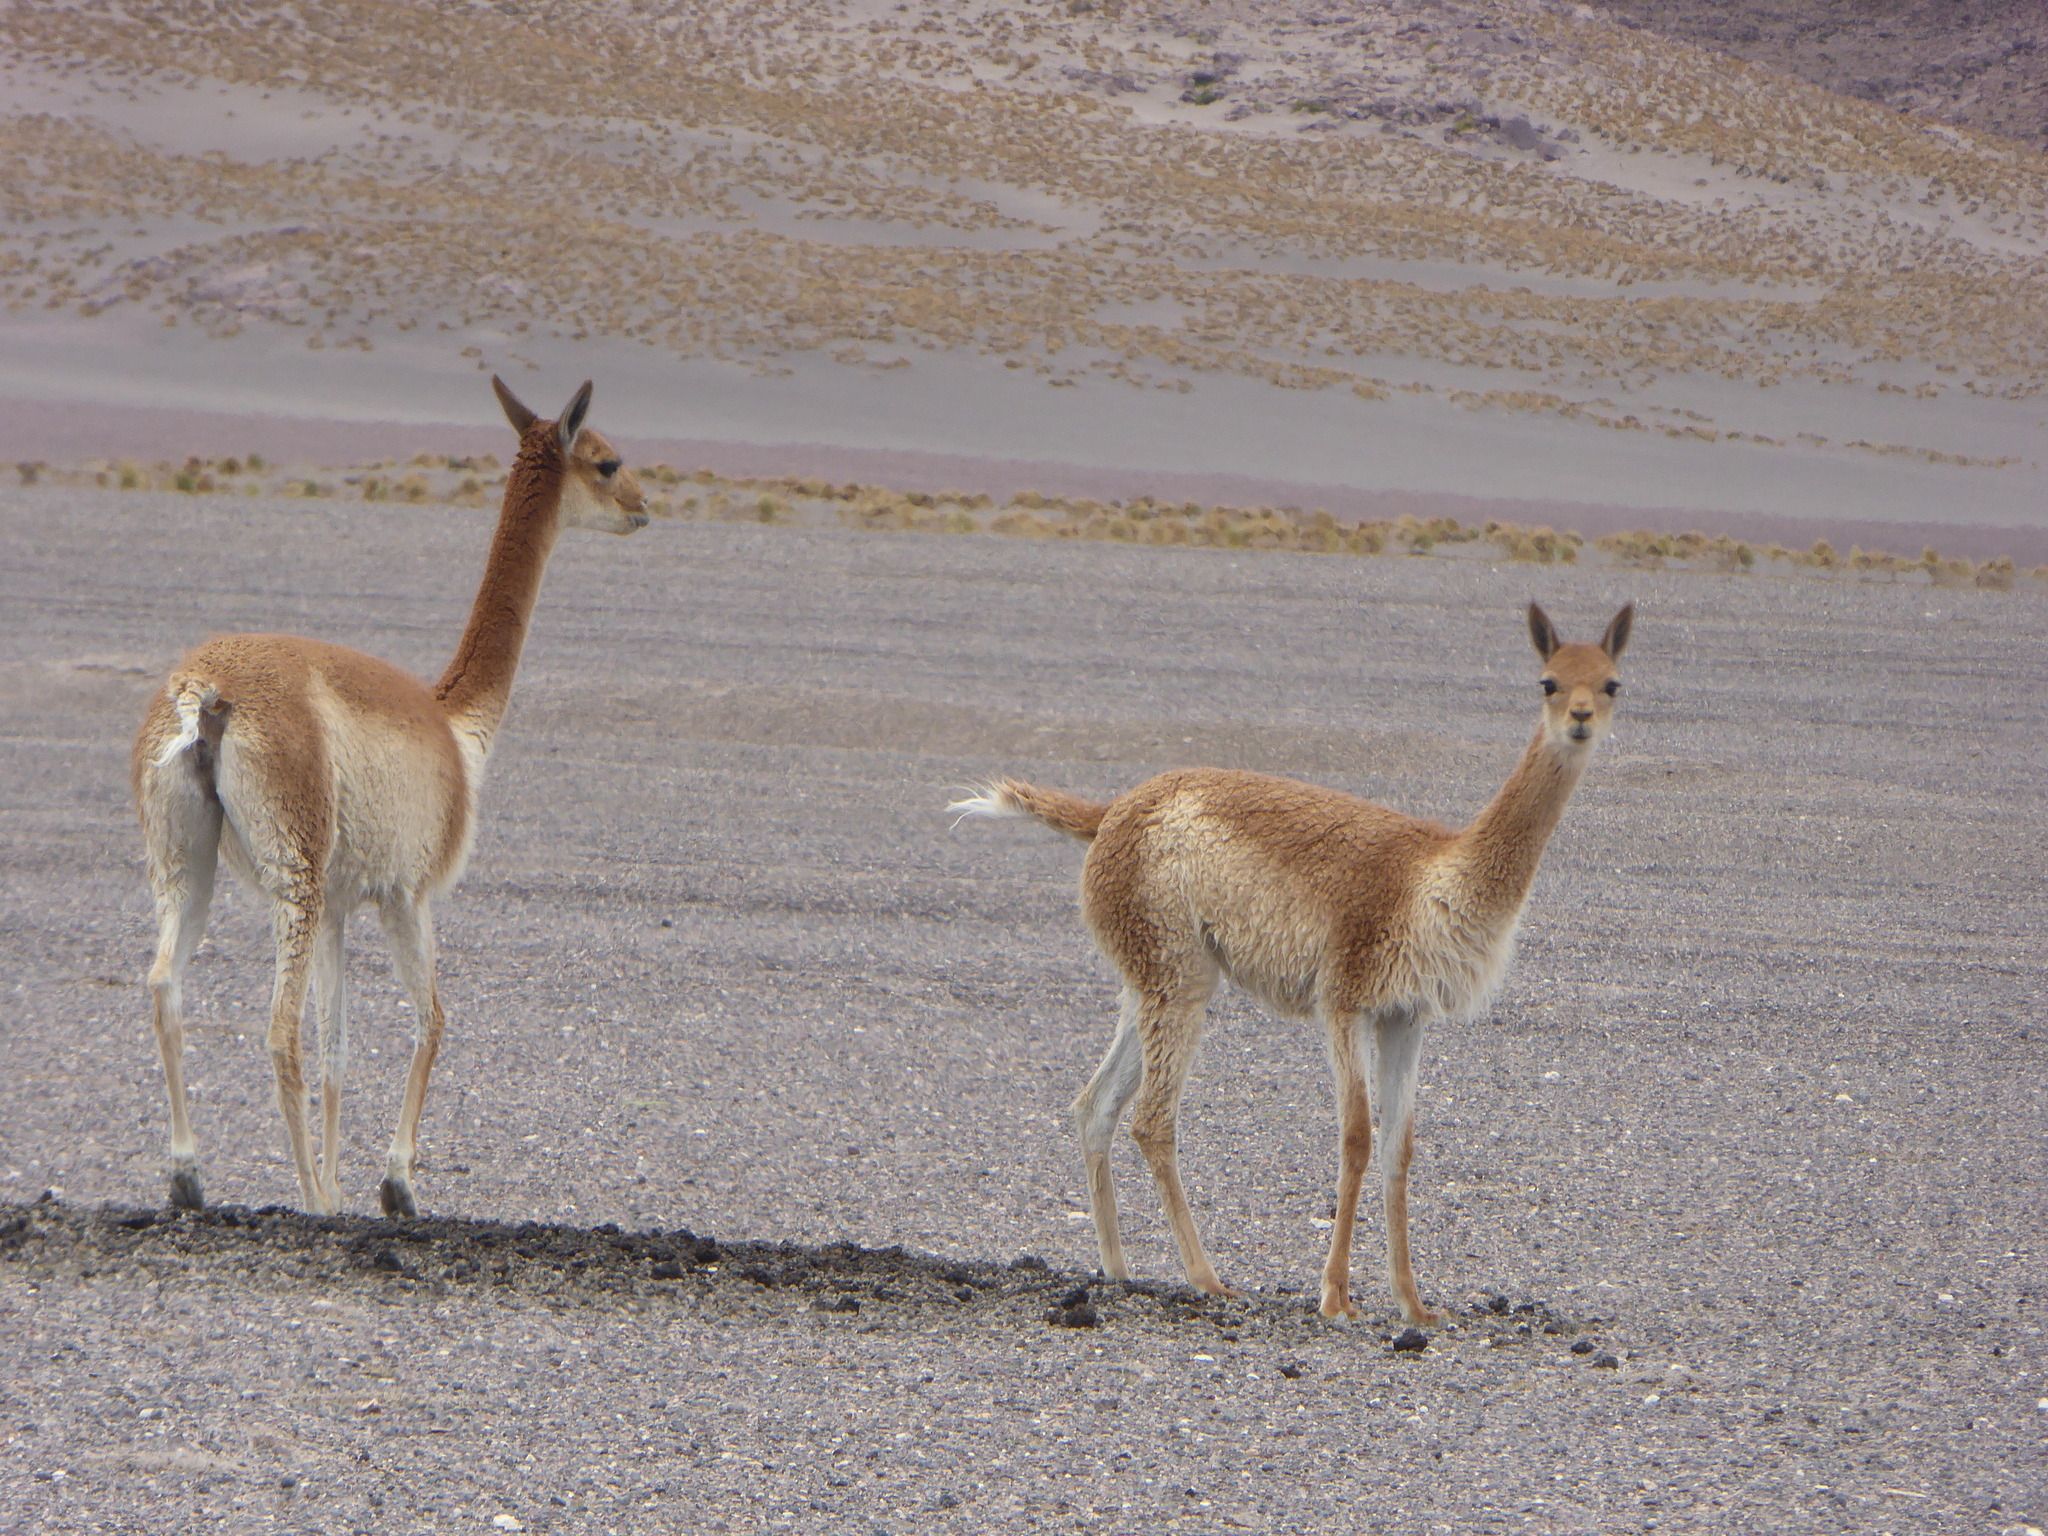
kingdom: Animalia
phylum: Chordata
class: Mammalia
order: Artiodactyla
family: Camelidae
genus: Vicugna
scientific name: Vicugna vicugna
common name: Vicugna
